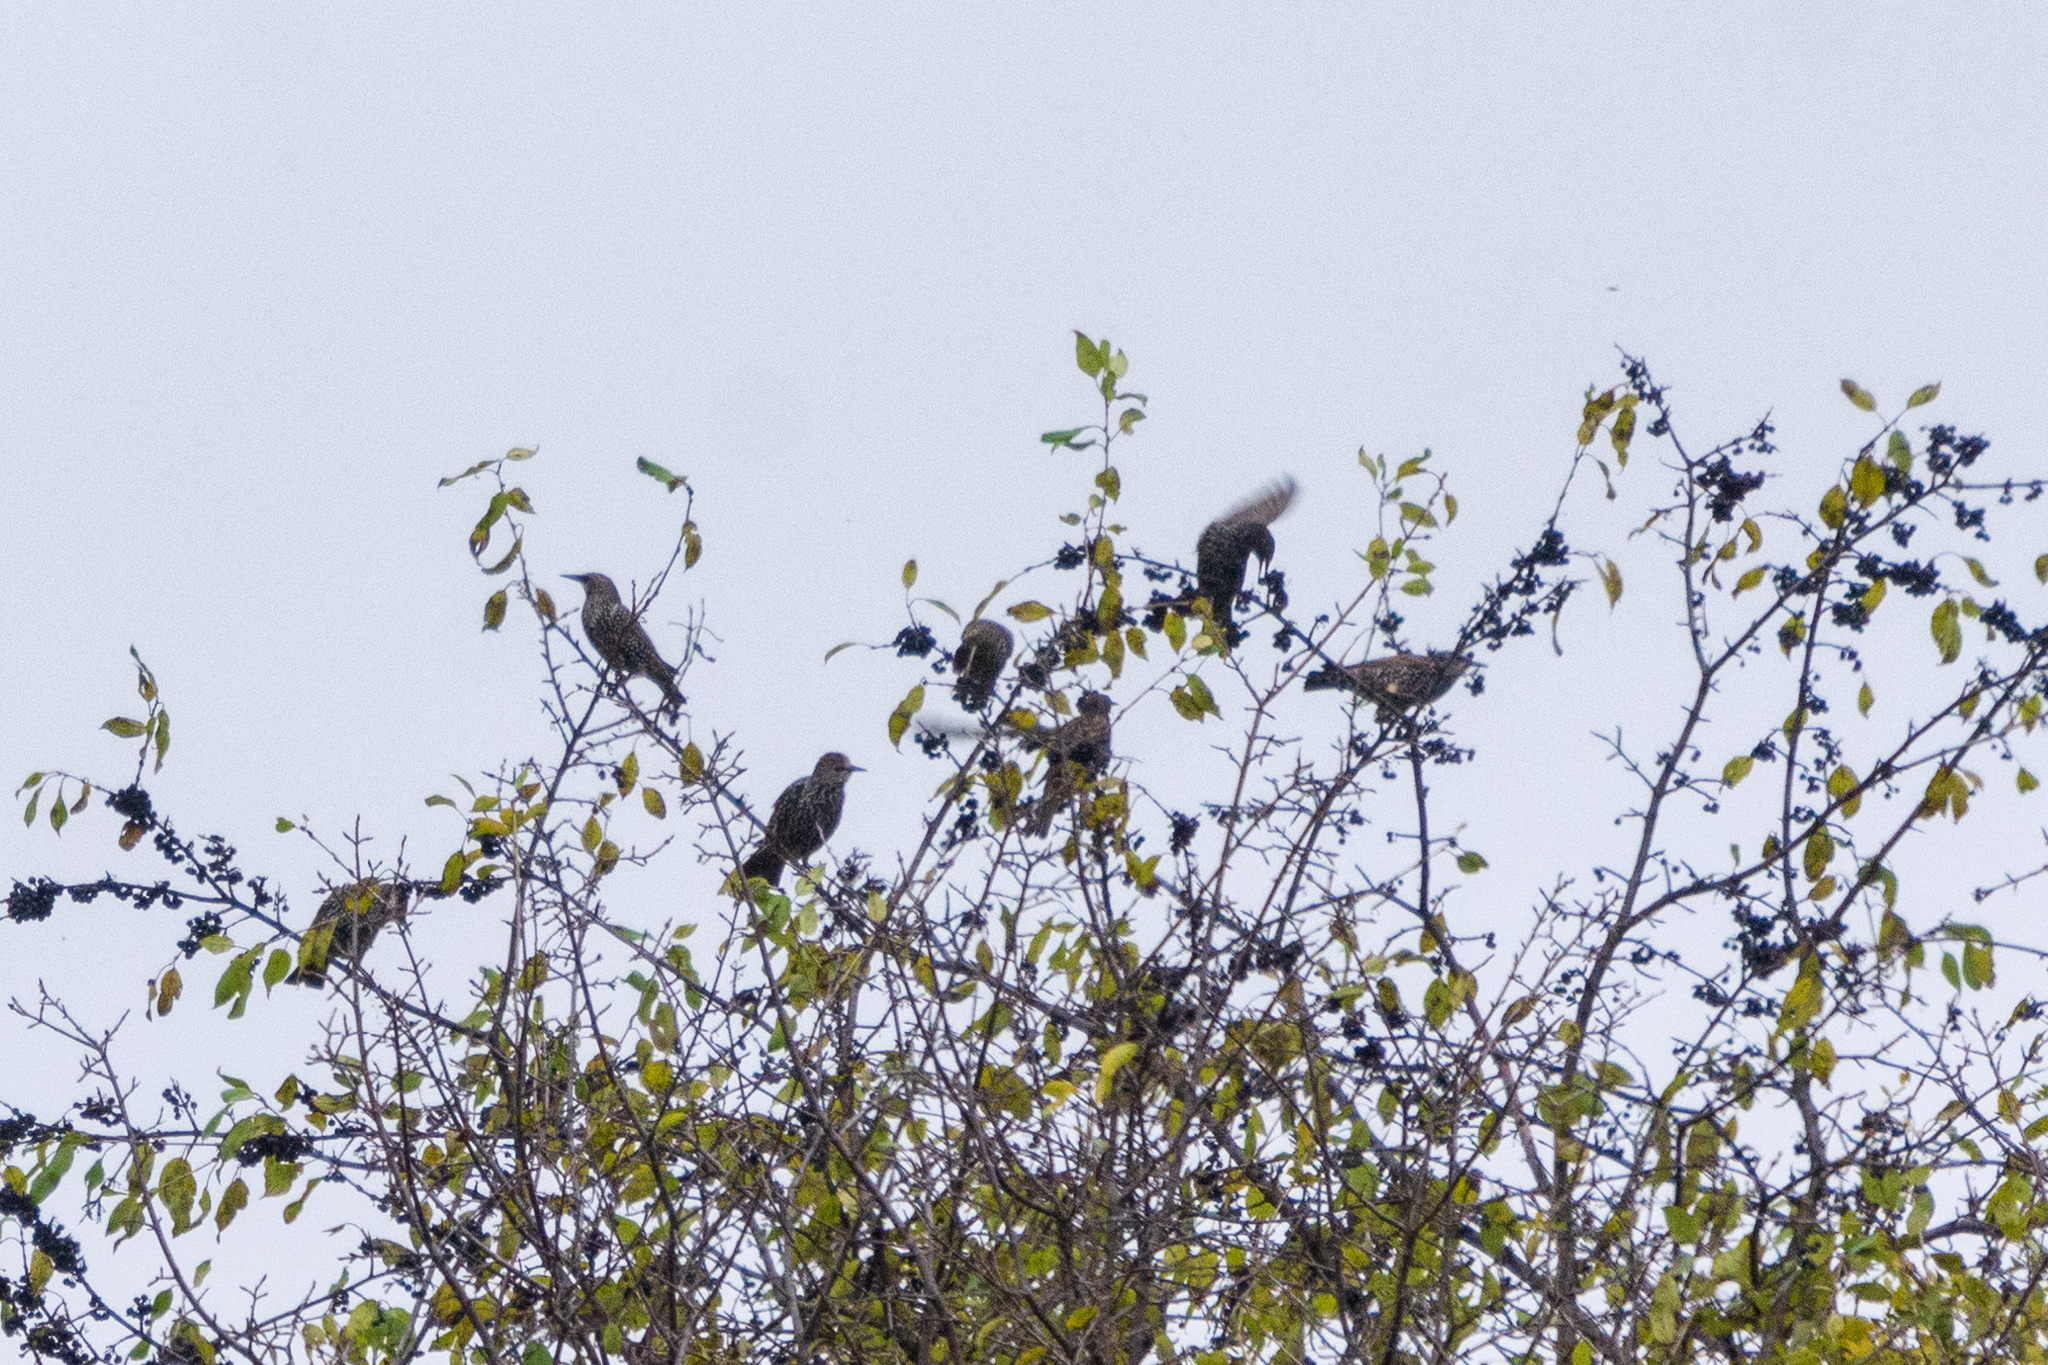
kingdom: Animalia
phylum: Chordata
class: Aves
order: Passeriformes
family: Sturnidae
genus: Sturnus
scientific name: Sturnus vulgaris
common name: Common starling
